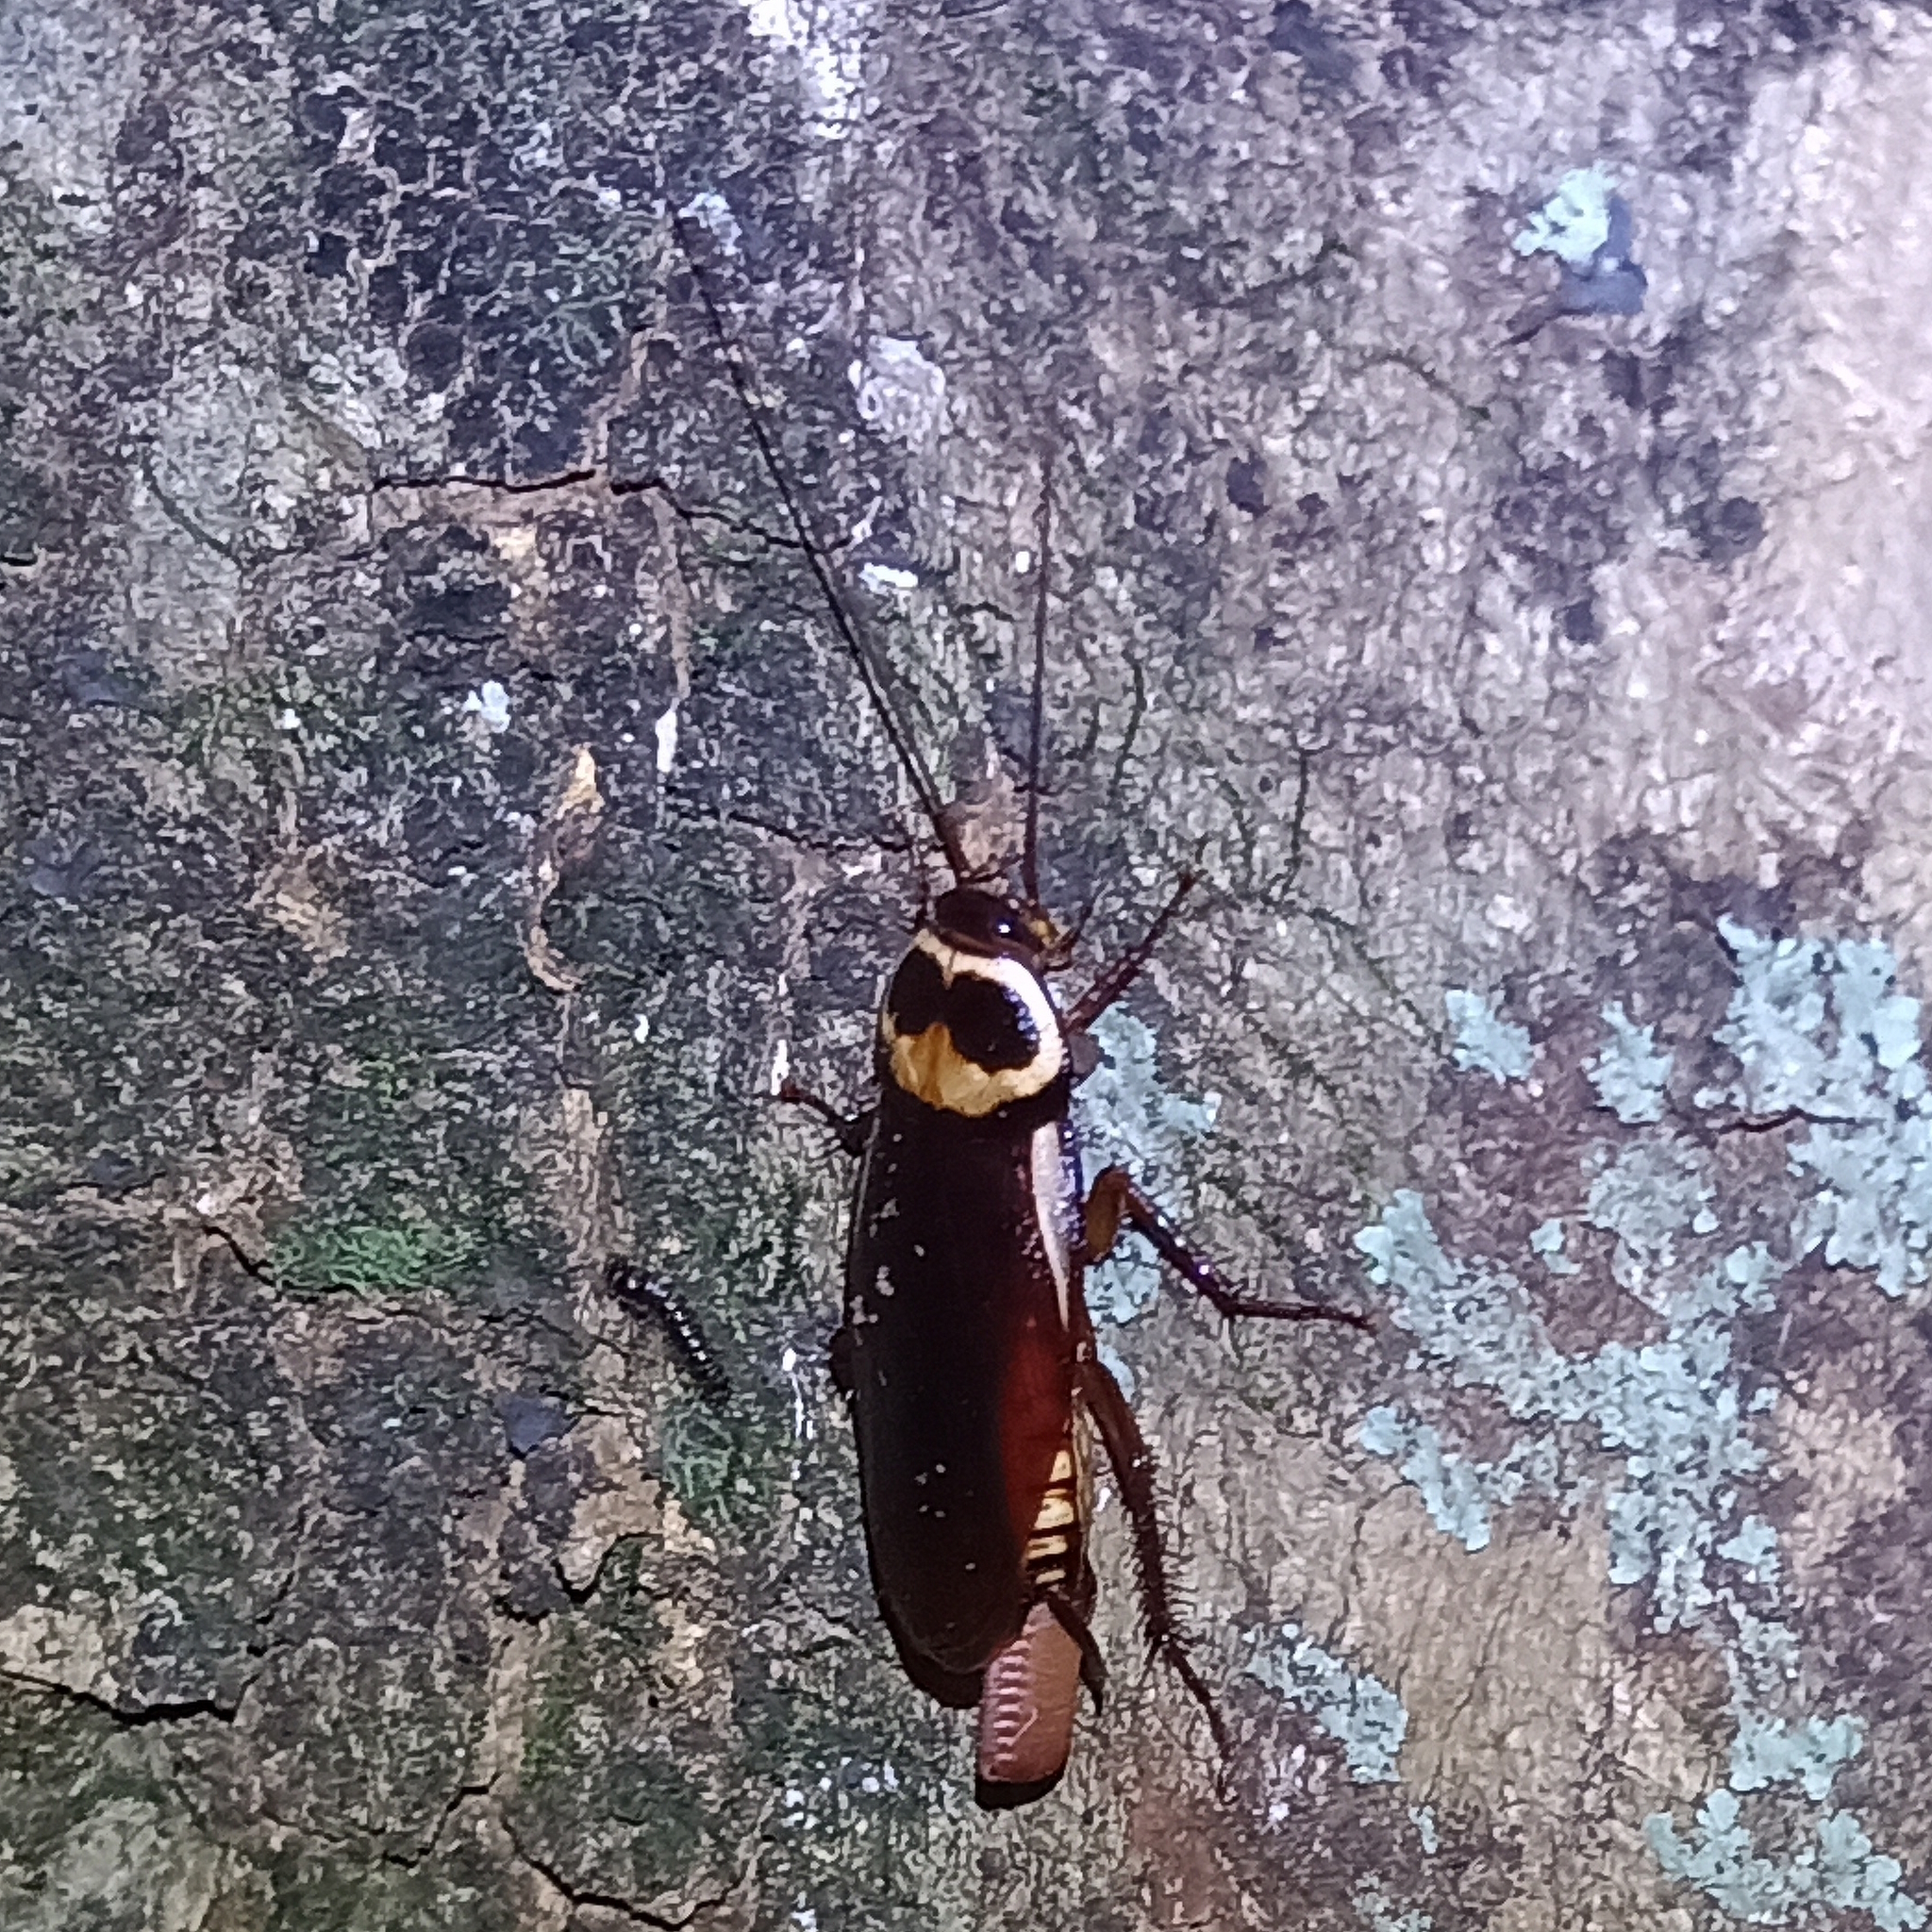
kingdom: Animalia
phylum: Arthropoda
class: Insecta
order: Blattodea
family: Blattidae
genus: Periplaneta
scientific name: Periplaneta australasiae
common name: Australian cockroach
